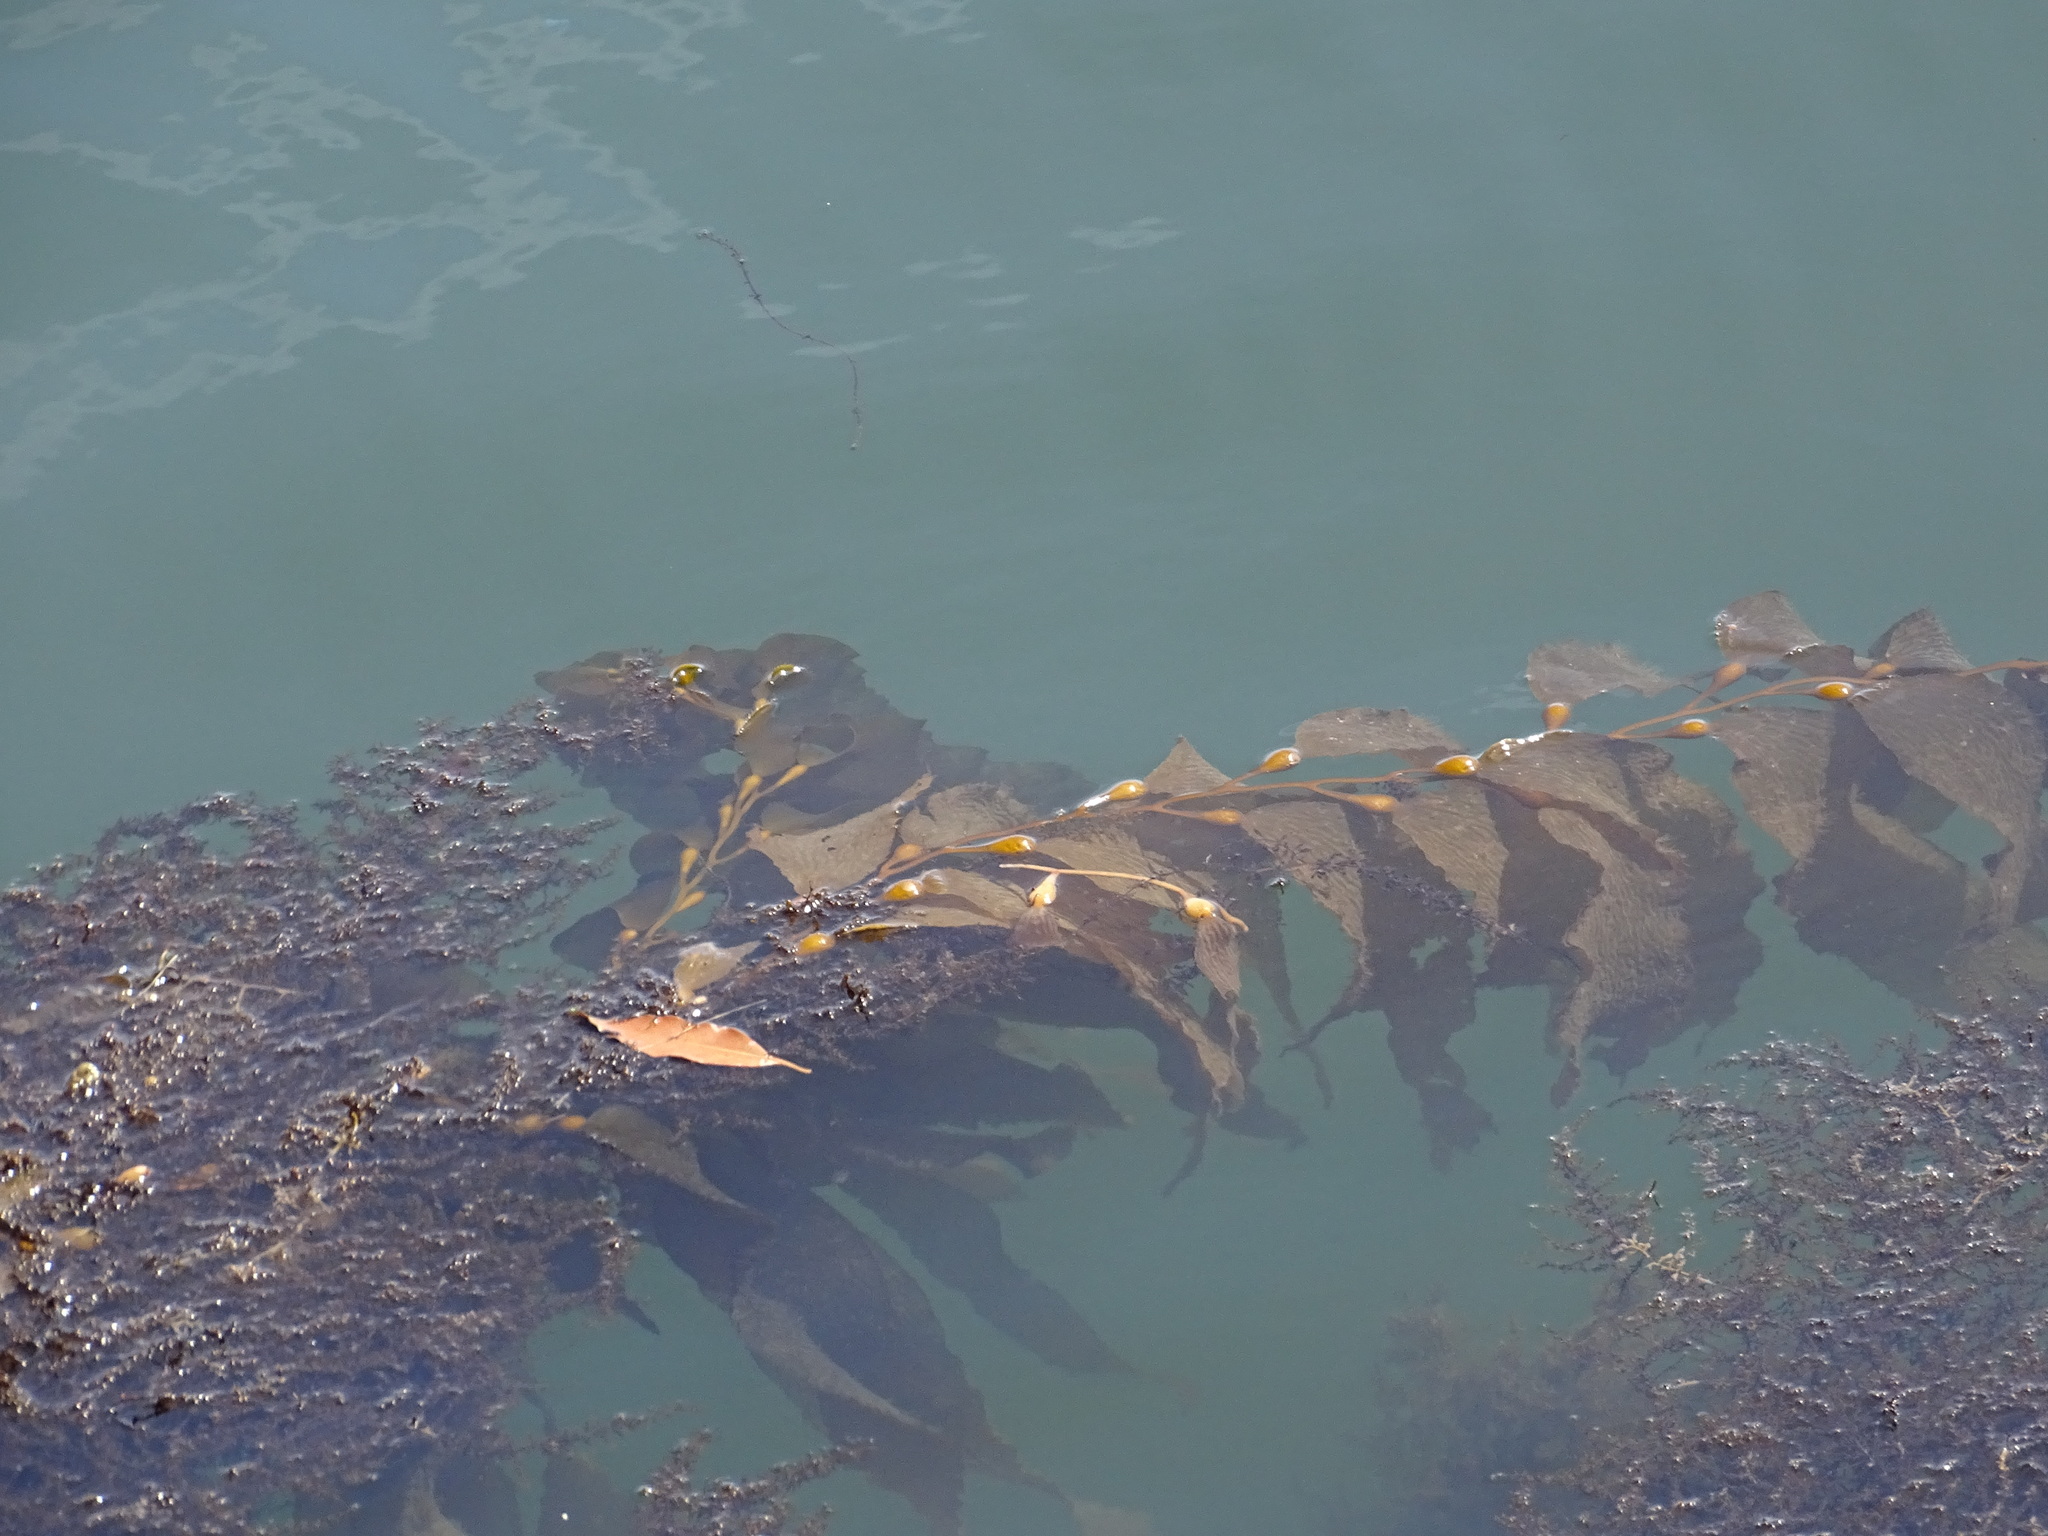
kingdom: Chromista
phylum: Ochrophyta
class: Phaeophyceae
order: Laminariales
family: Laminariaceae
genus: Macrocystis
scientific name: Macrocystis pyrifera
